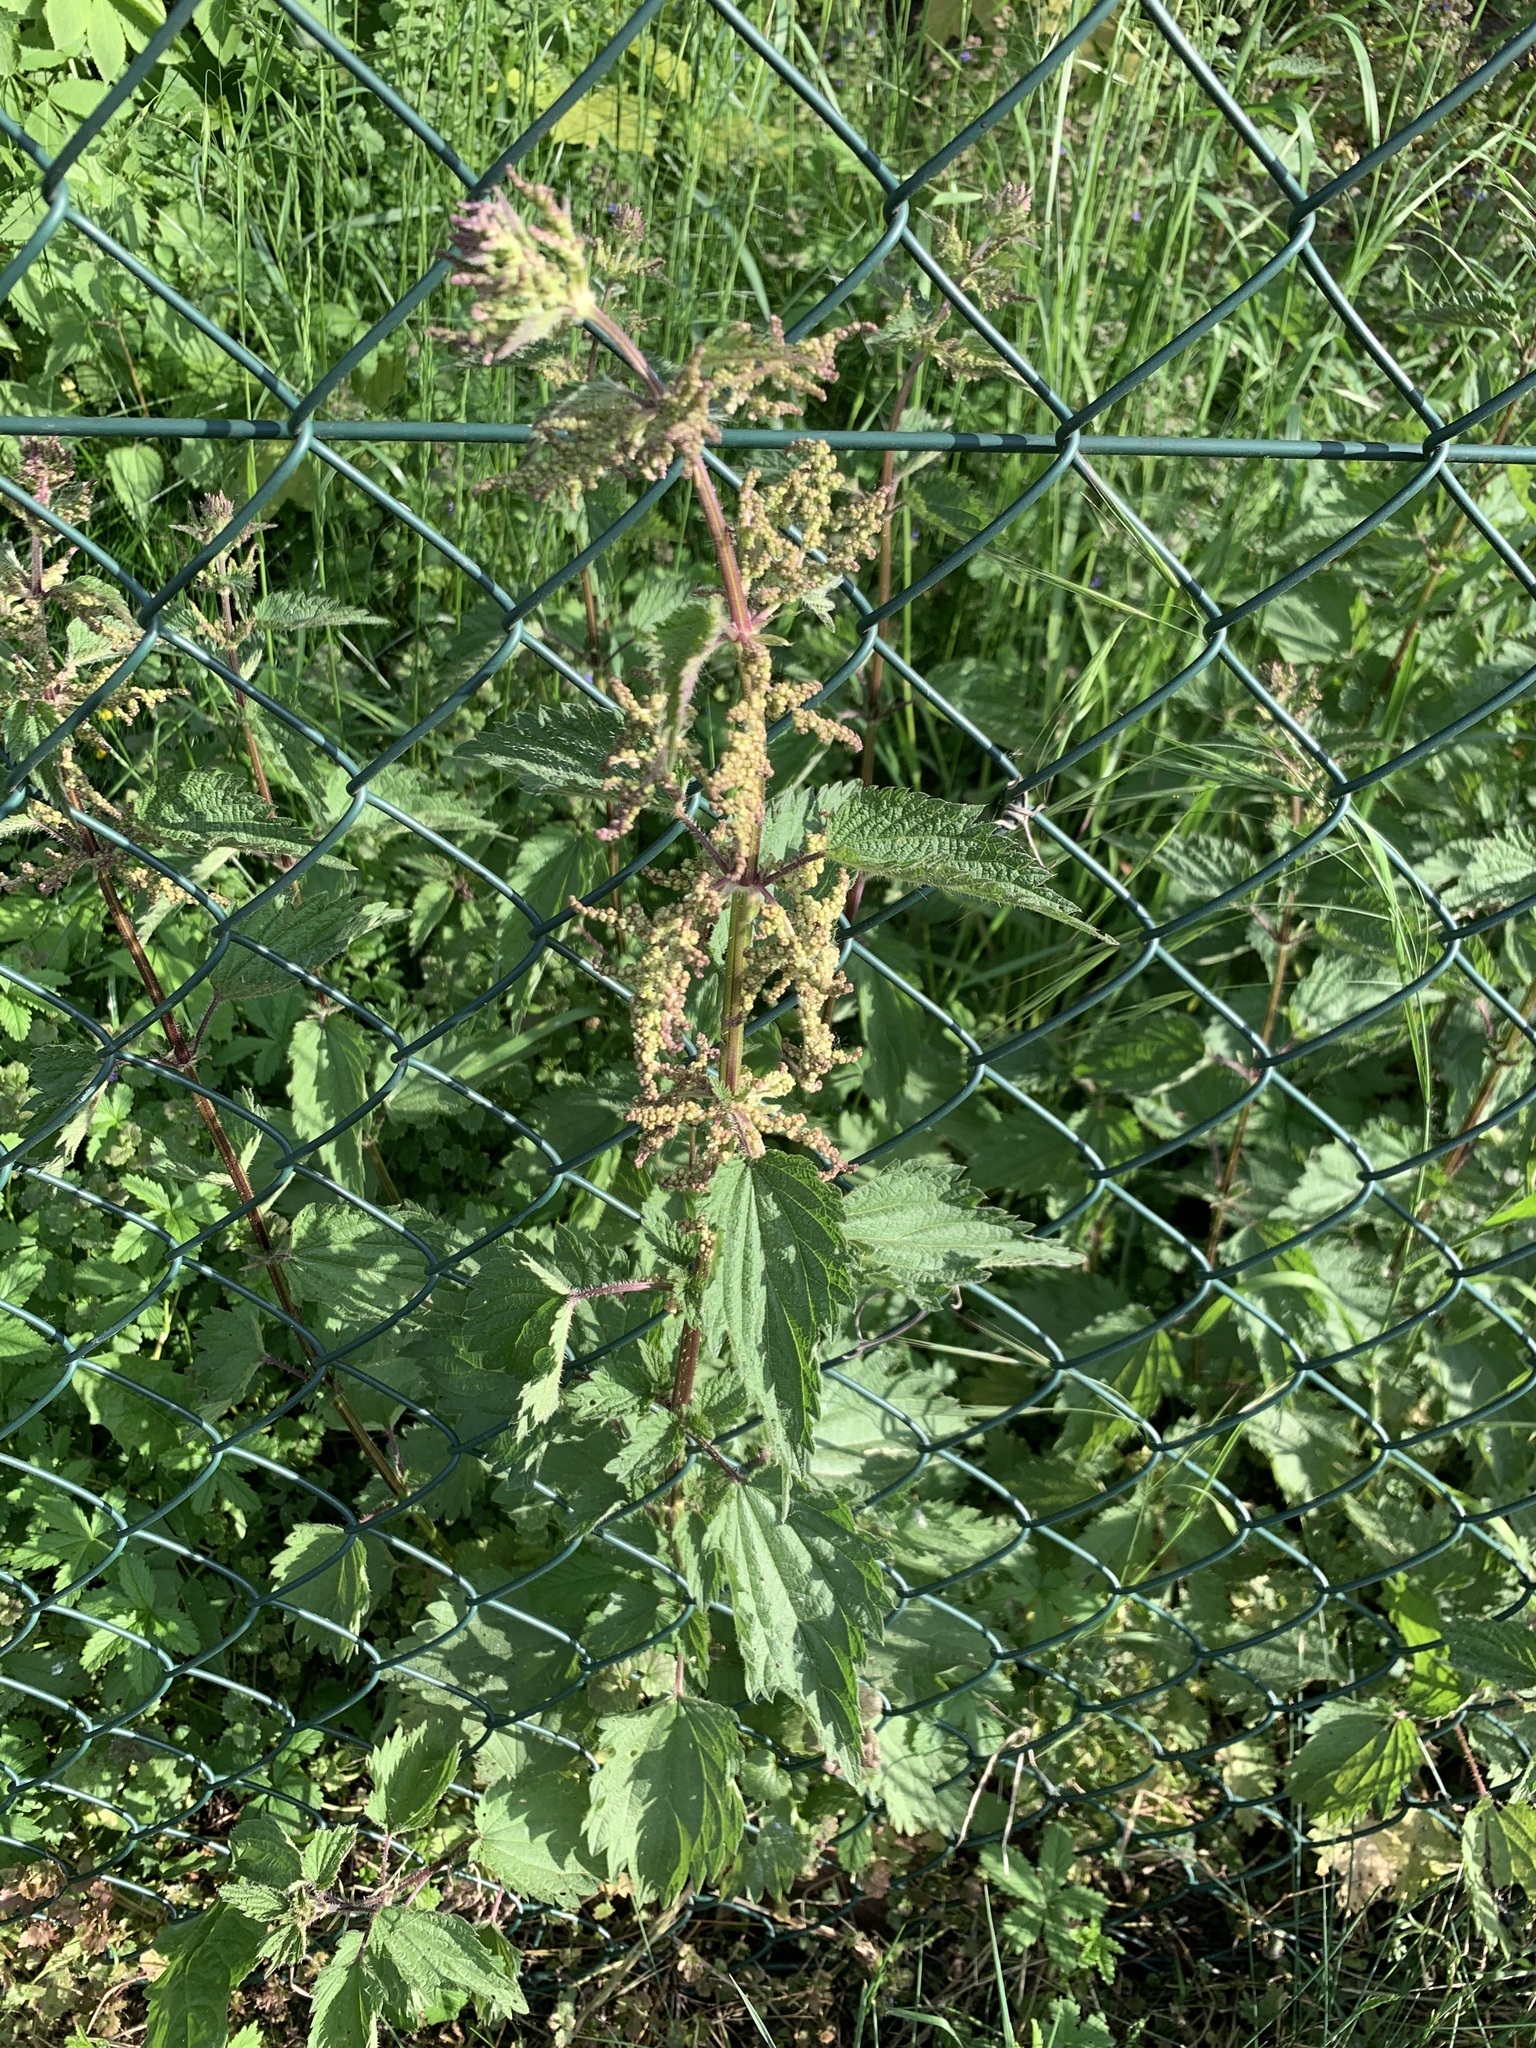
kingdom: Plantae
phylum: Tracheophyta
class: Magnoliopsida
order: Rosales
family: Urticaceae
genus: Urtica
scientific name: Urtica dioica
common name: Common nettle
